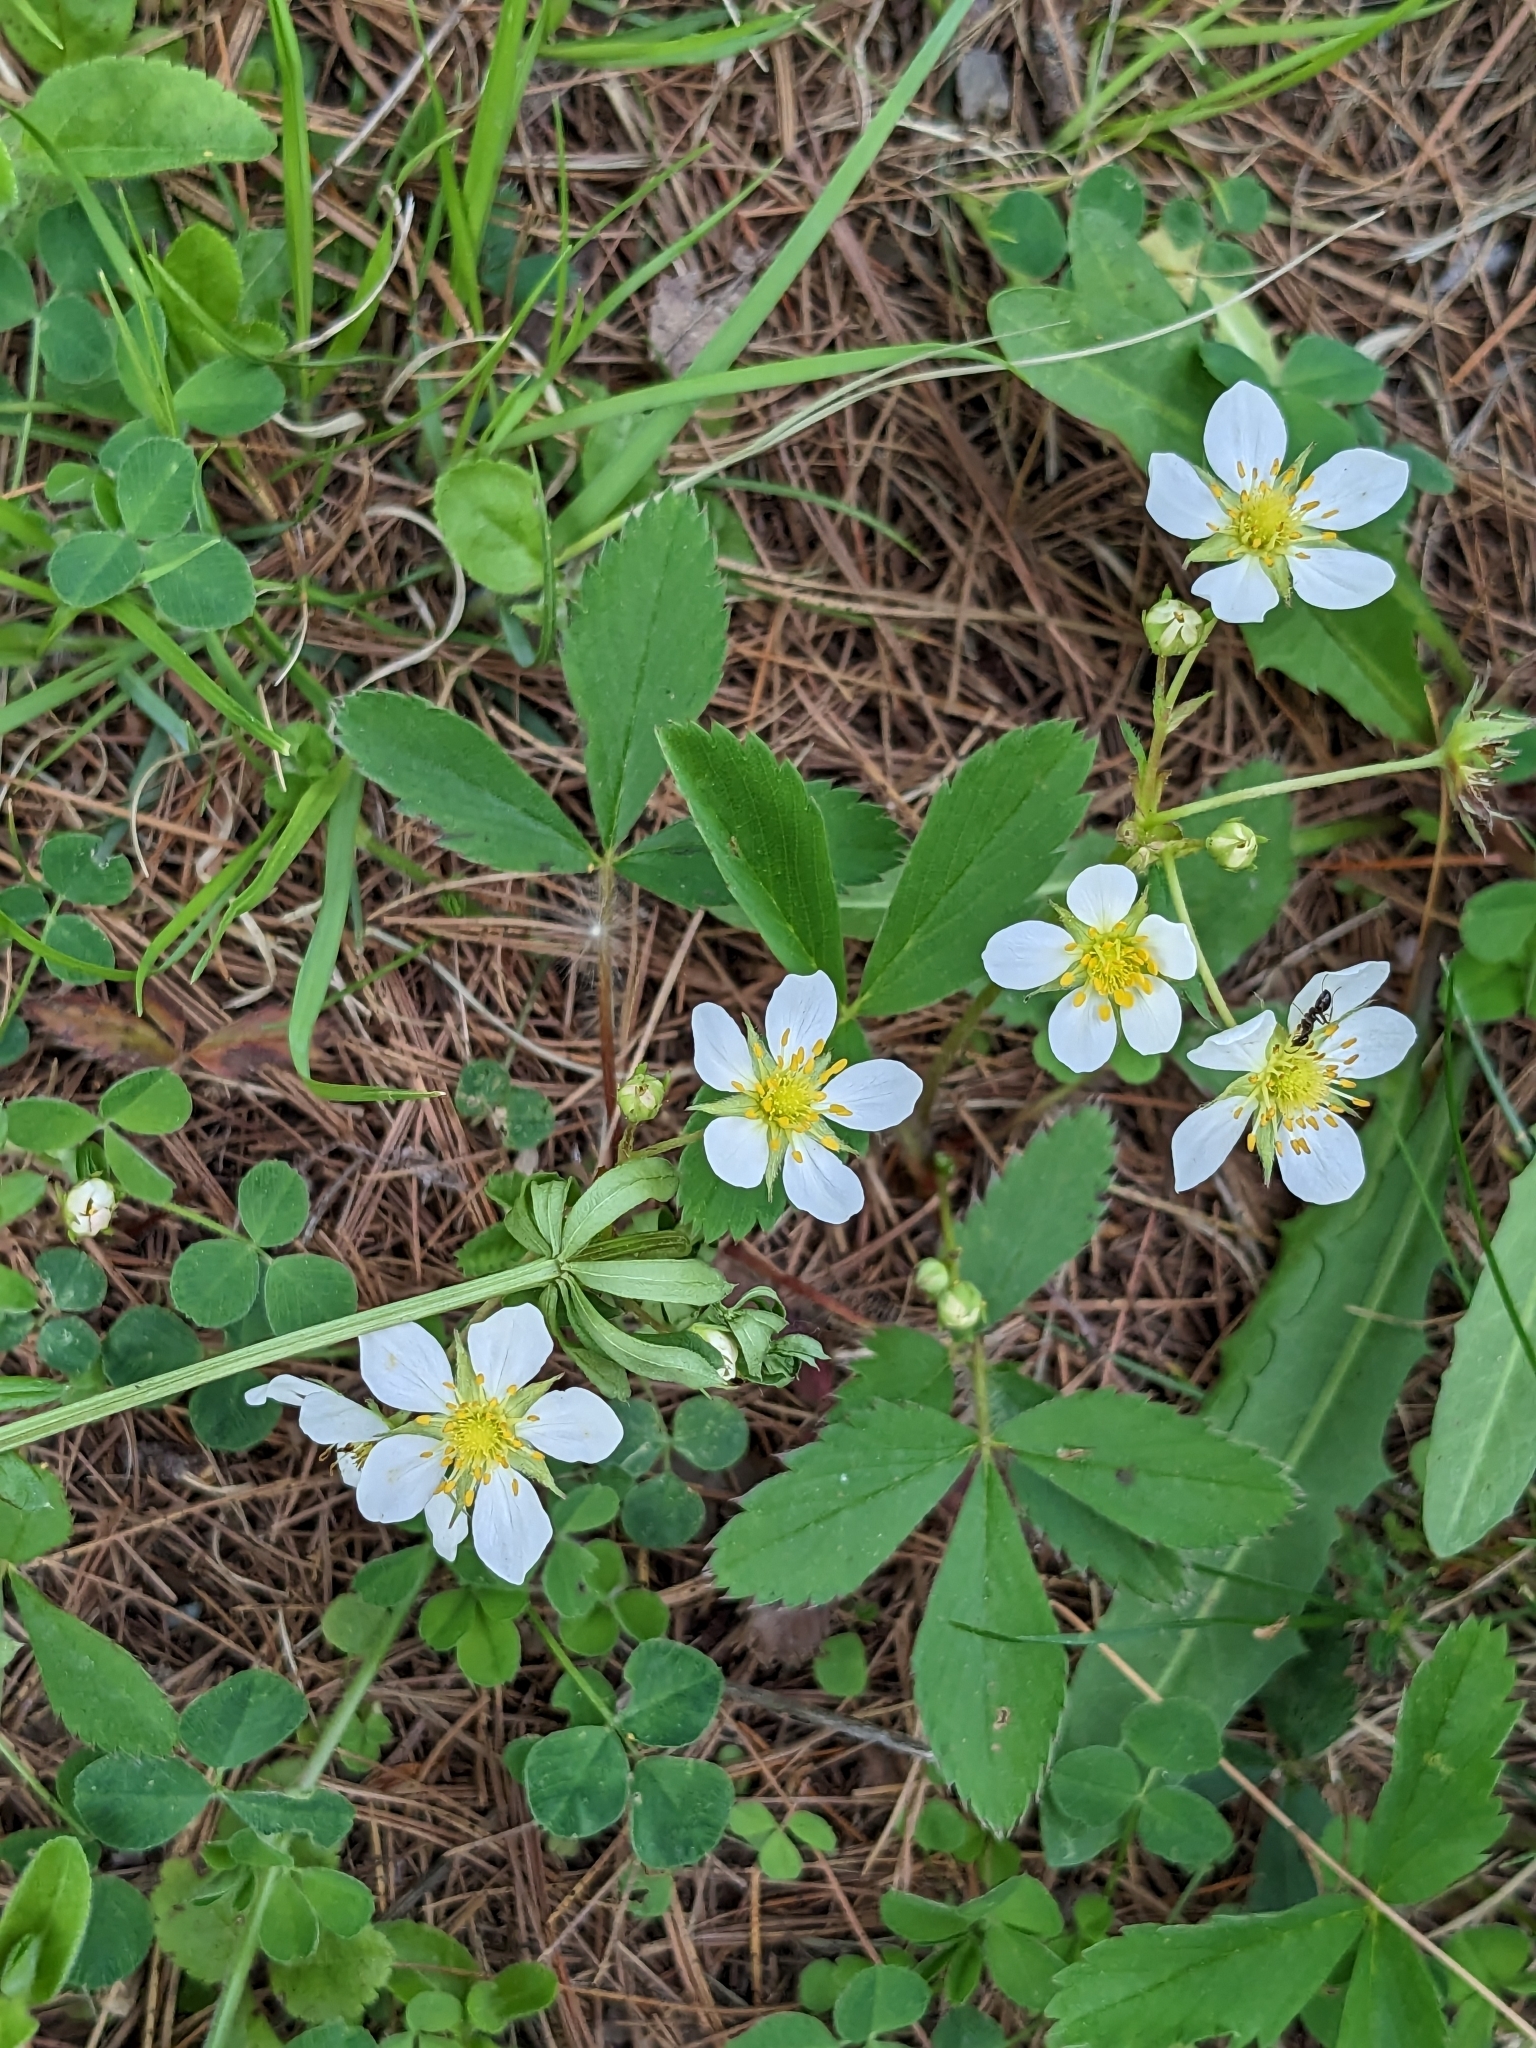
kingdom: Plantae
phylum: Tracheophyta
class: Magnoliopsida
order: Rosales
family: Rosaceae
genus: Fragaria
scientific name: Fragaria virginiana
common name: Thickleaved wild strawberry
